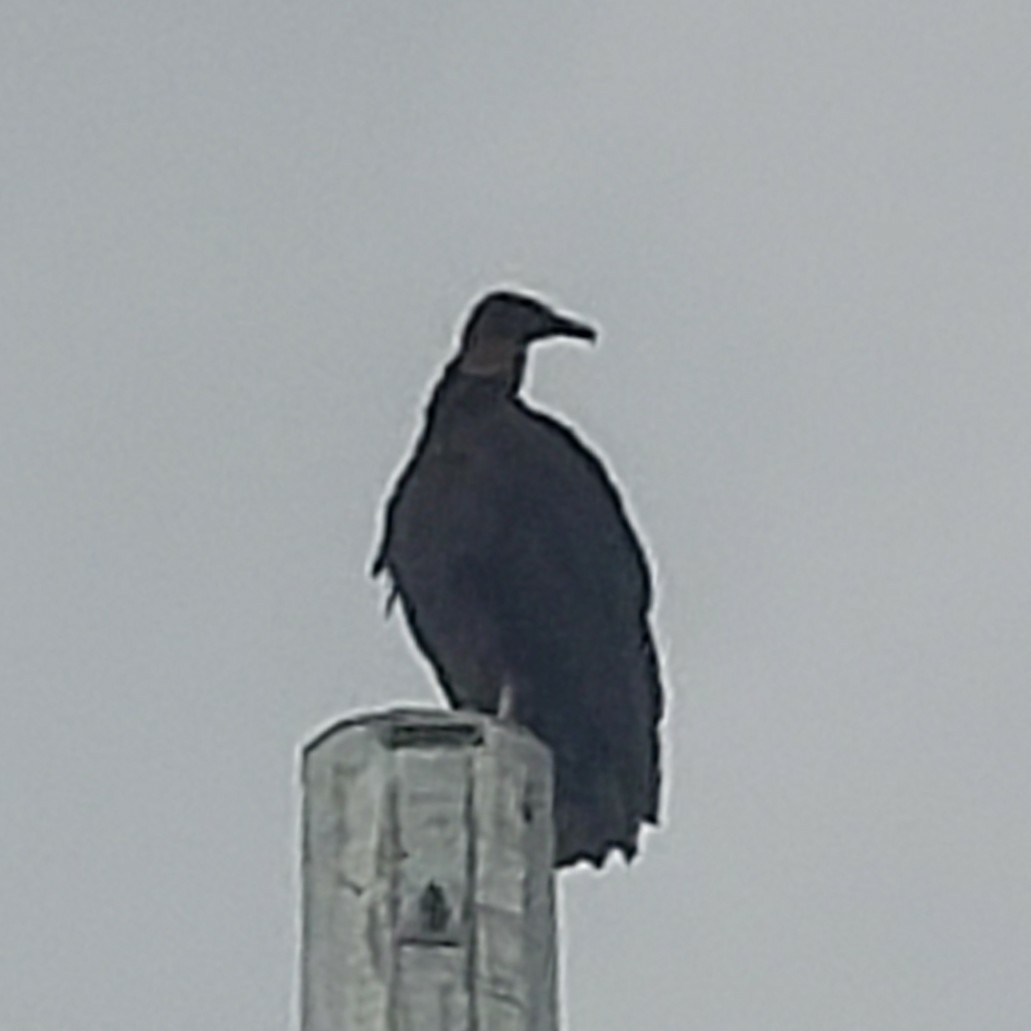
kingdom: Animalia
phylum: Chordata
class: Aves
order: Accipitriformes
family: Cathartidae
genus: Coragyps
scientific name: Coragyps atratus
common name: Black vulture
